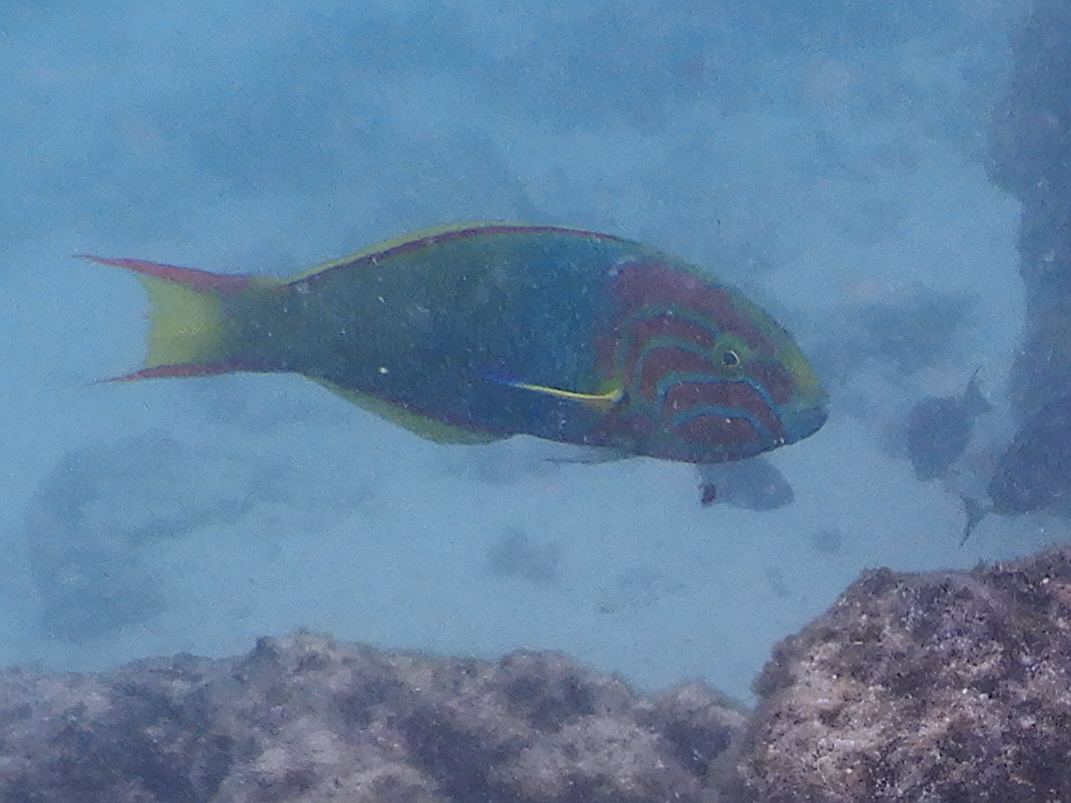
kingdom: Animalia
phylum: Chordata
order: Perciformes
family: Labridae
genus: Thalassoma
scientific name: Thalassoma lutescens
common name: Green moon wrasse
